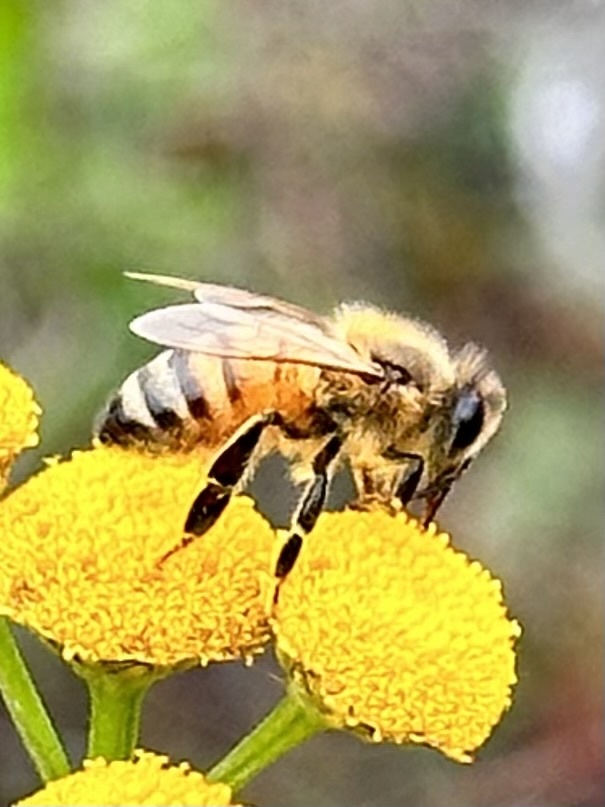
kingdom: Animalia
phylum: Arthropoda
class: Insecta
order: Hymenoptera
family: Apidae
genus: Apis
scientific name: Apis mellifera
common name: Honey bee
